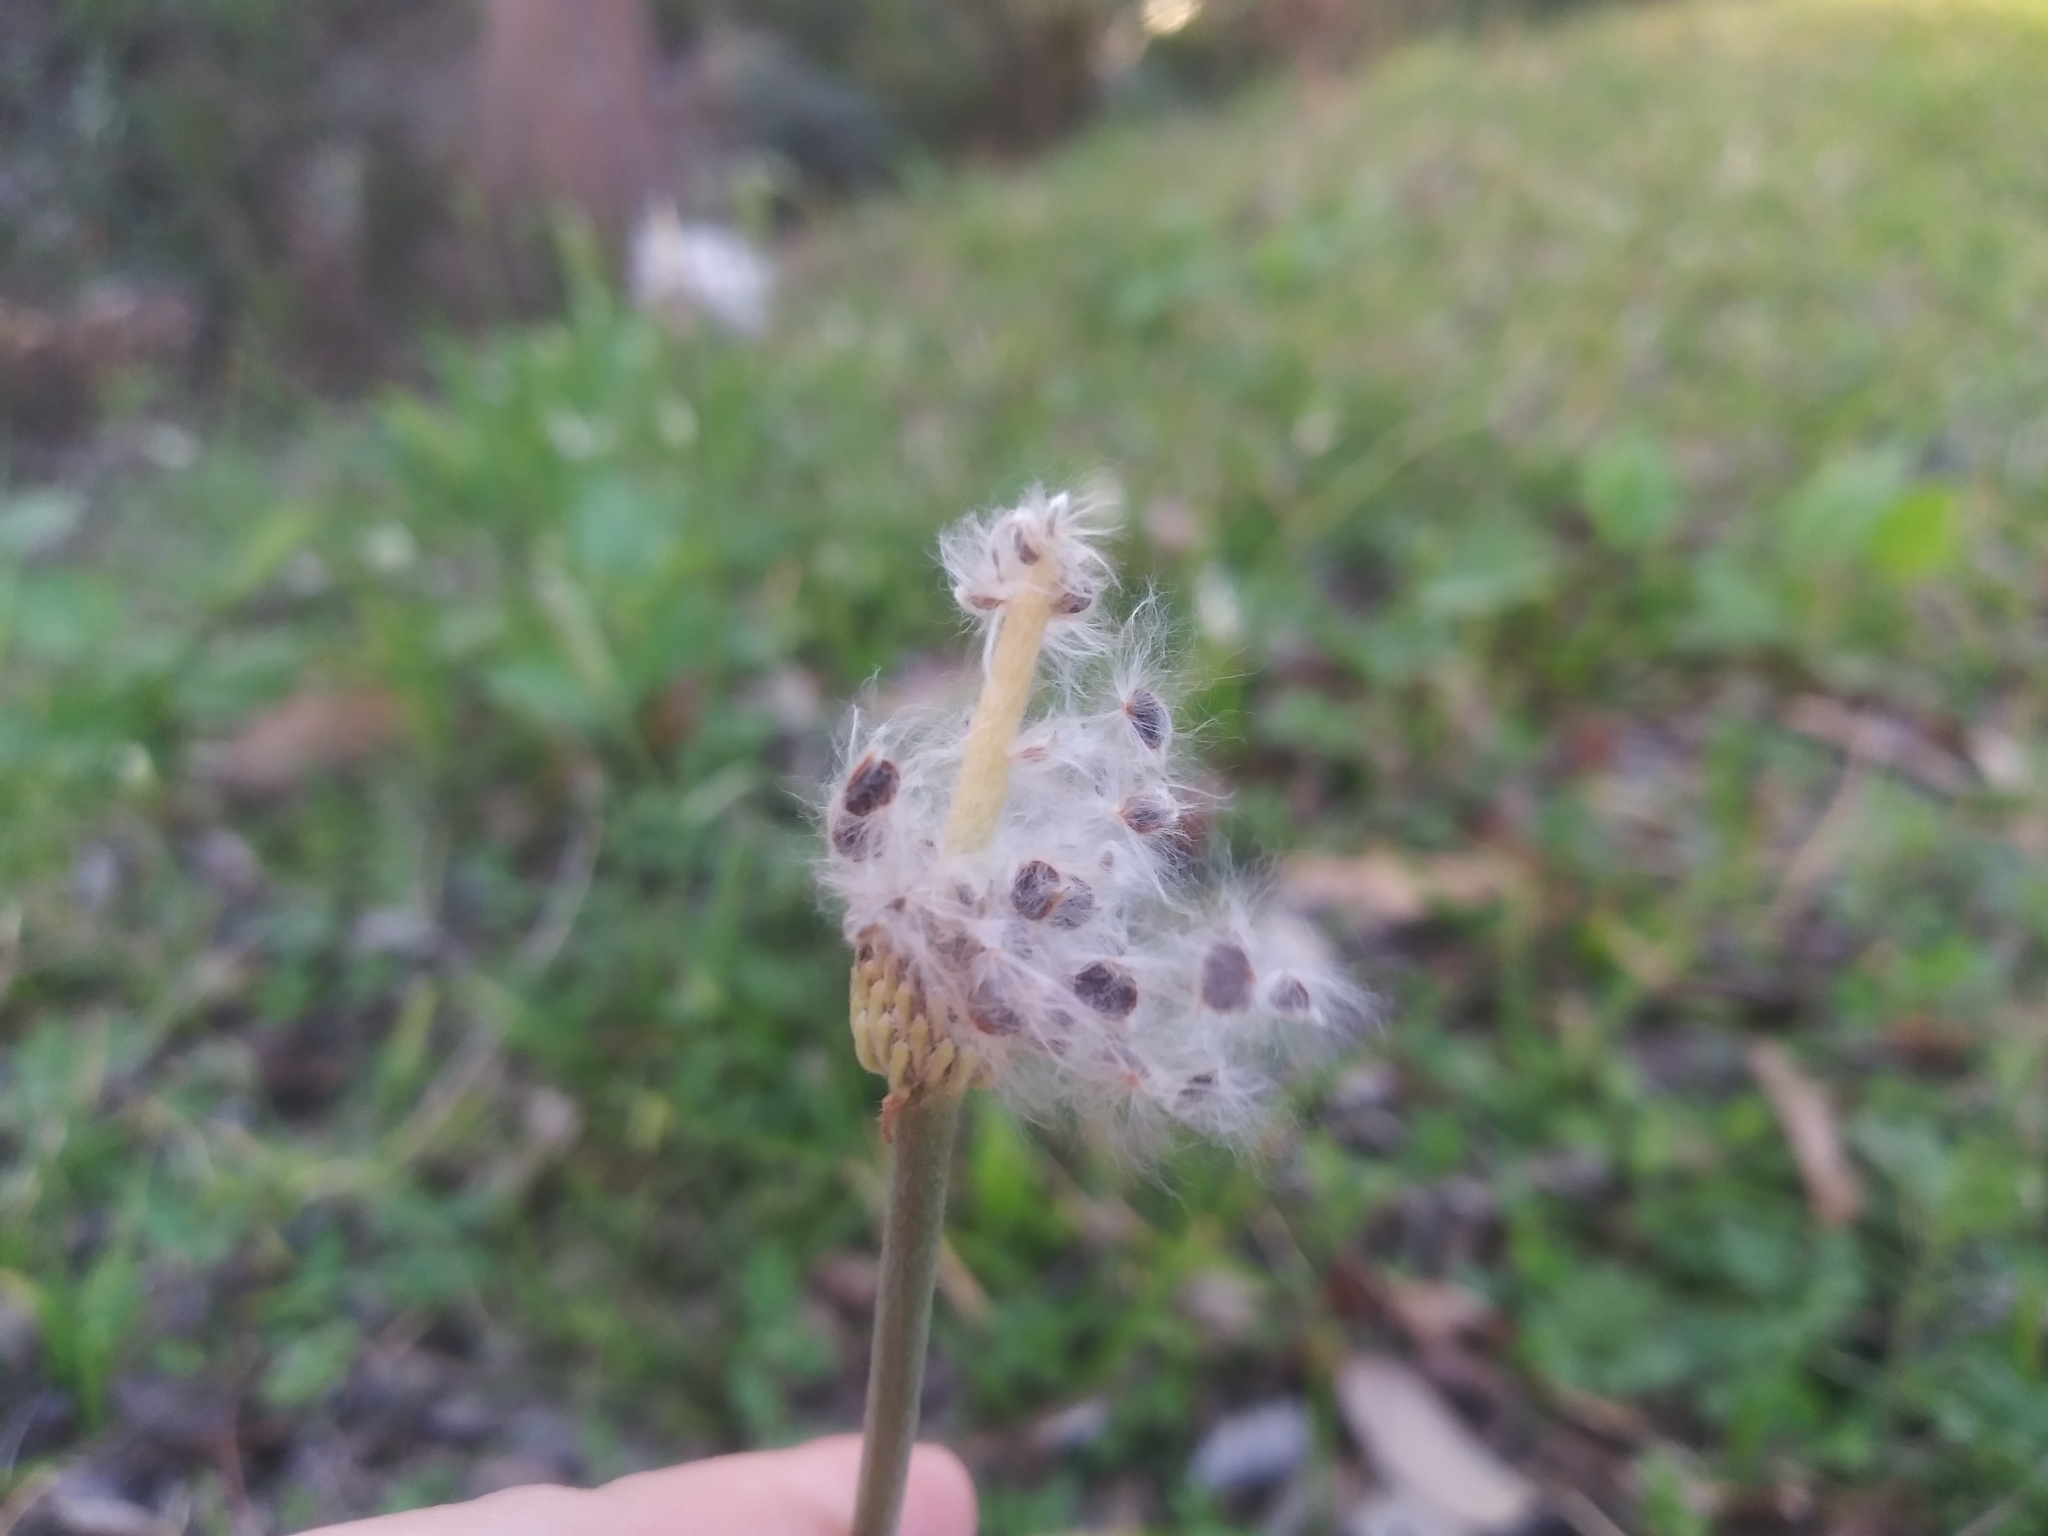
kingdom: Plantae
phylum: Tracheophyta
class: Magnoliopsida
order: Ranunculales
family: Ranunculaceae
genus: Anemone
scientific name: Anemone berlandieri
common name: Ten-petal anemone
